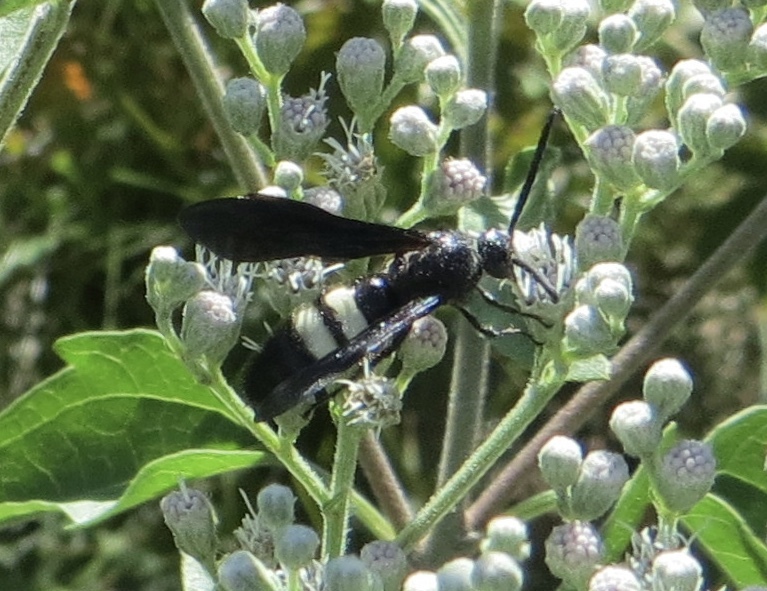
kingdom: Animalia
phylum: Arthropoda
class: Insecta
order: Hymenoptera
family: Scoliidae
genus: Scolia
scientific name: Scolia bicincta
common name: Double-banded scoliid wasp
